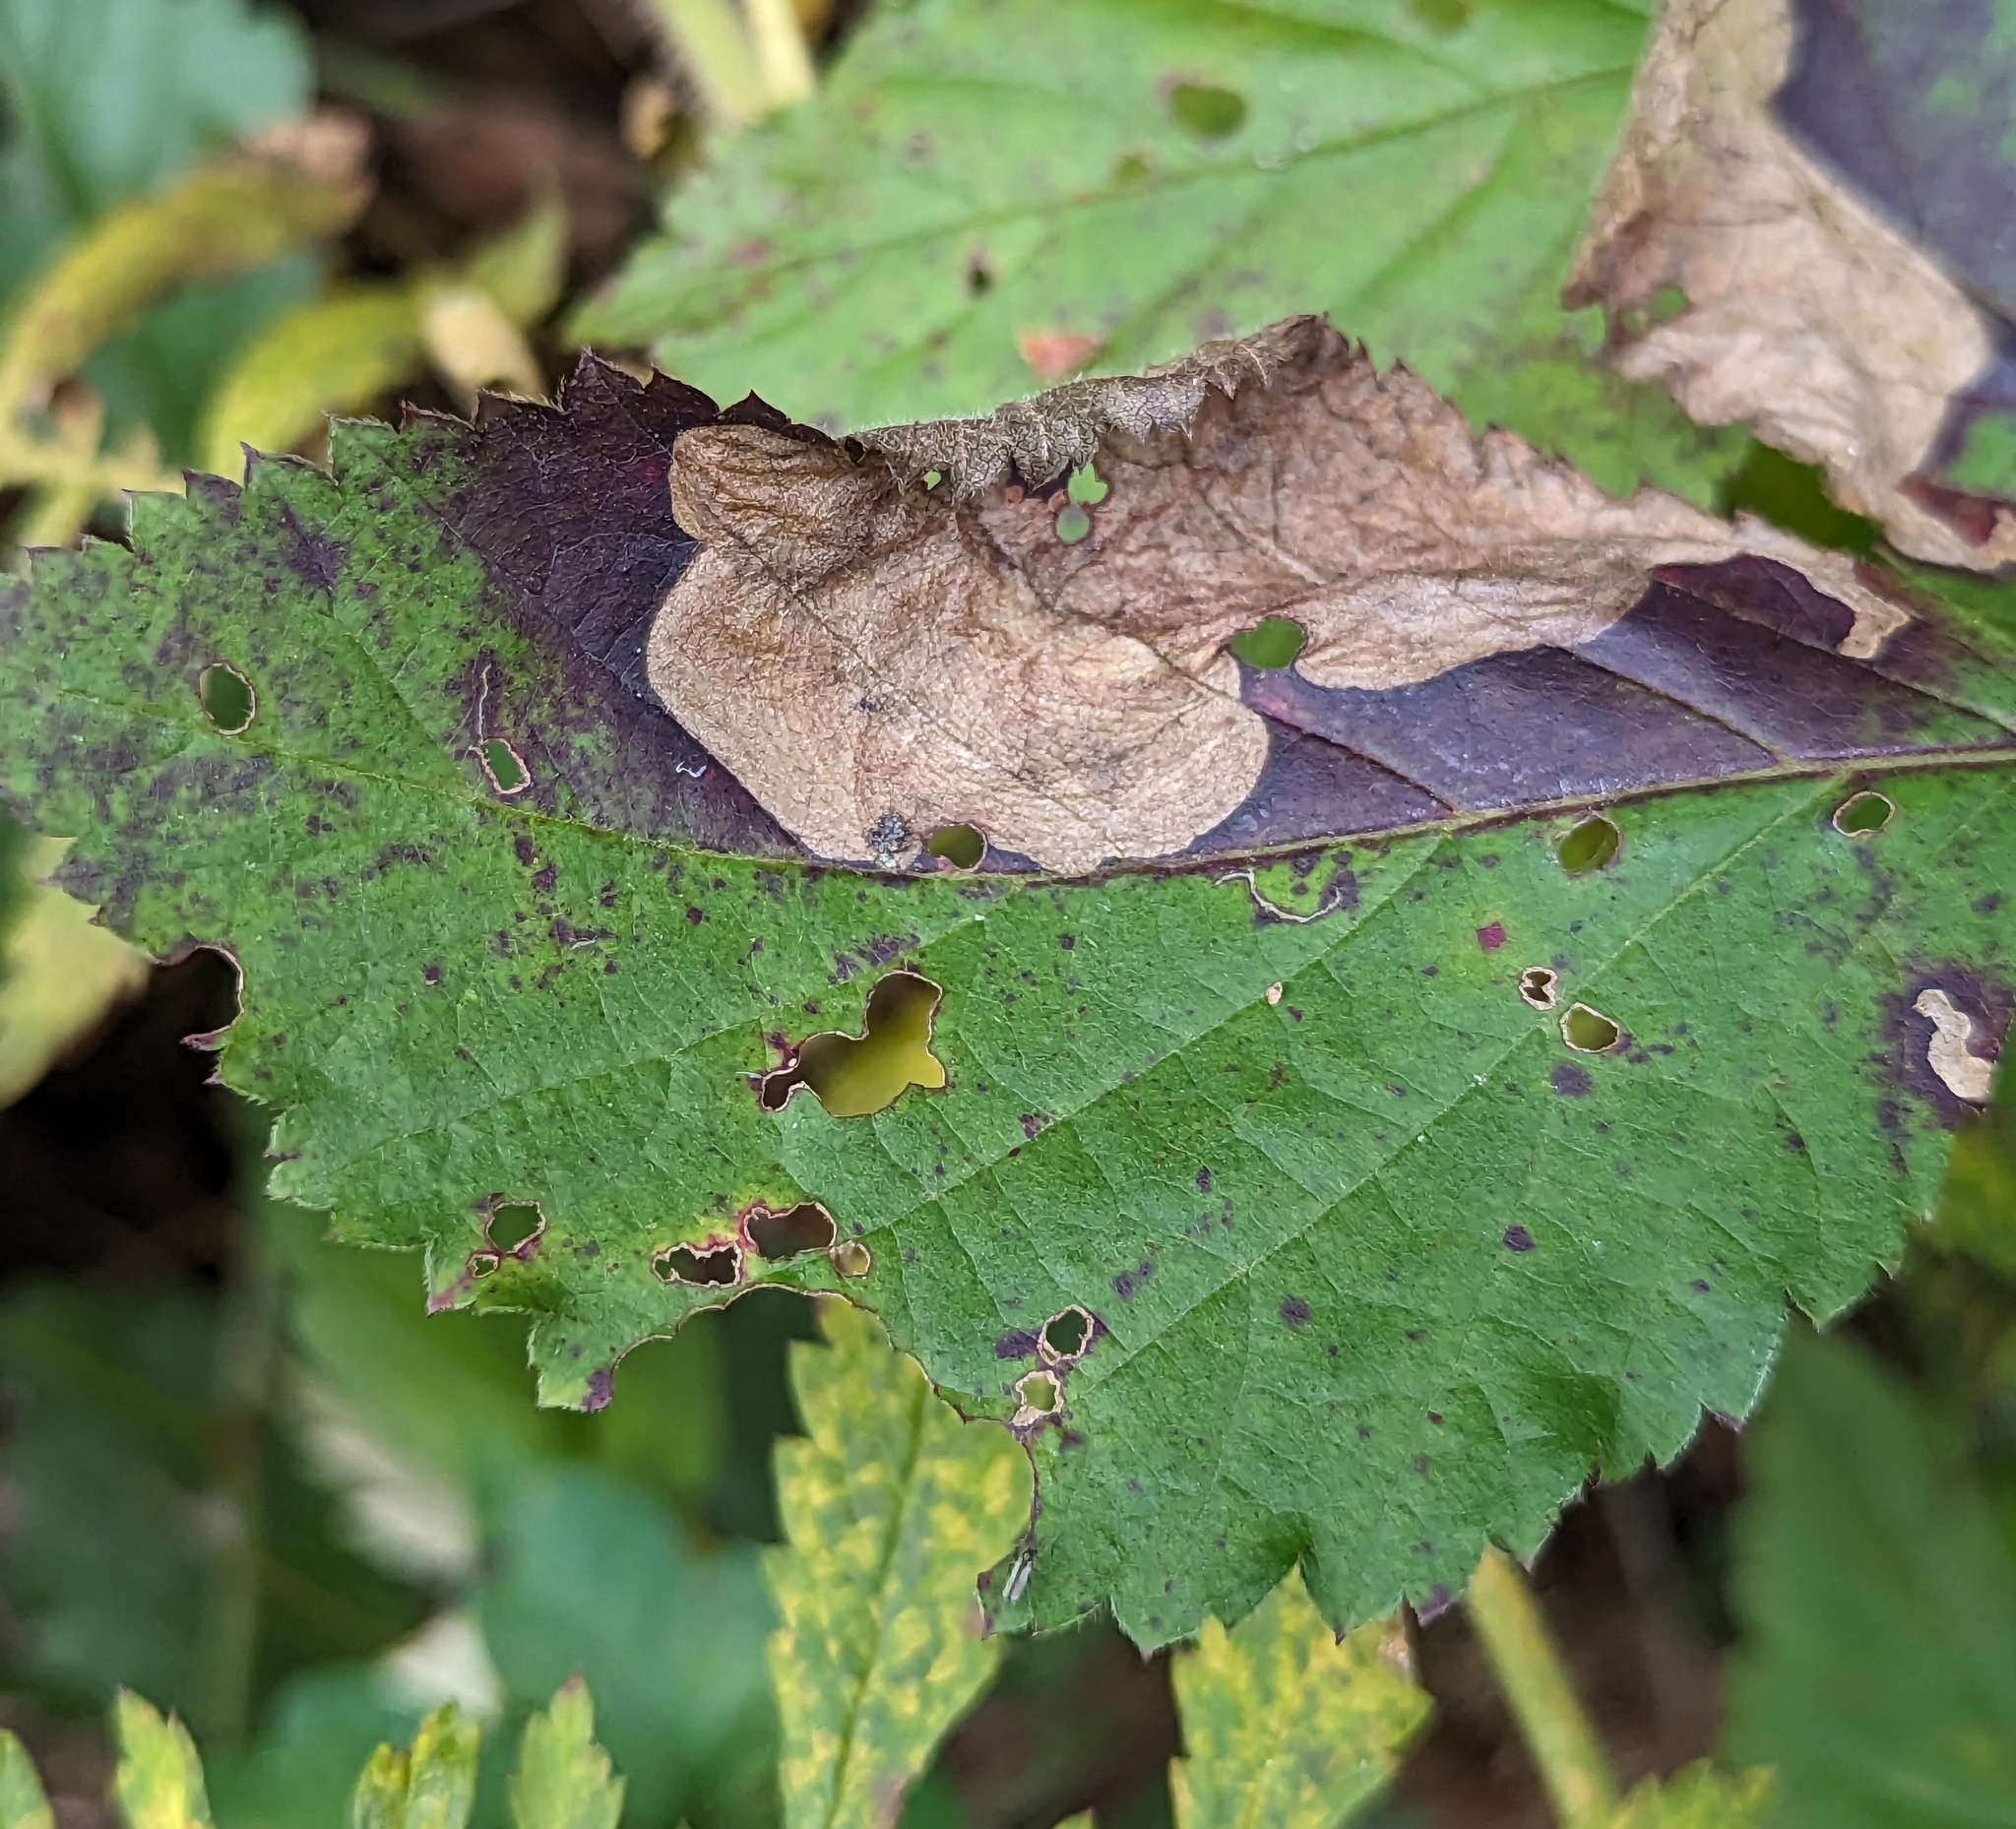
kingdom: Animalia
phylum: Arthropoda
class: Insecta
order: Hymenoptera
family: Tenthredinidae
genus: Metallus
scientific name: Metallus rohweri
